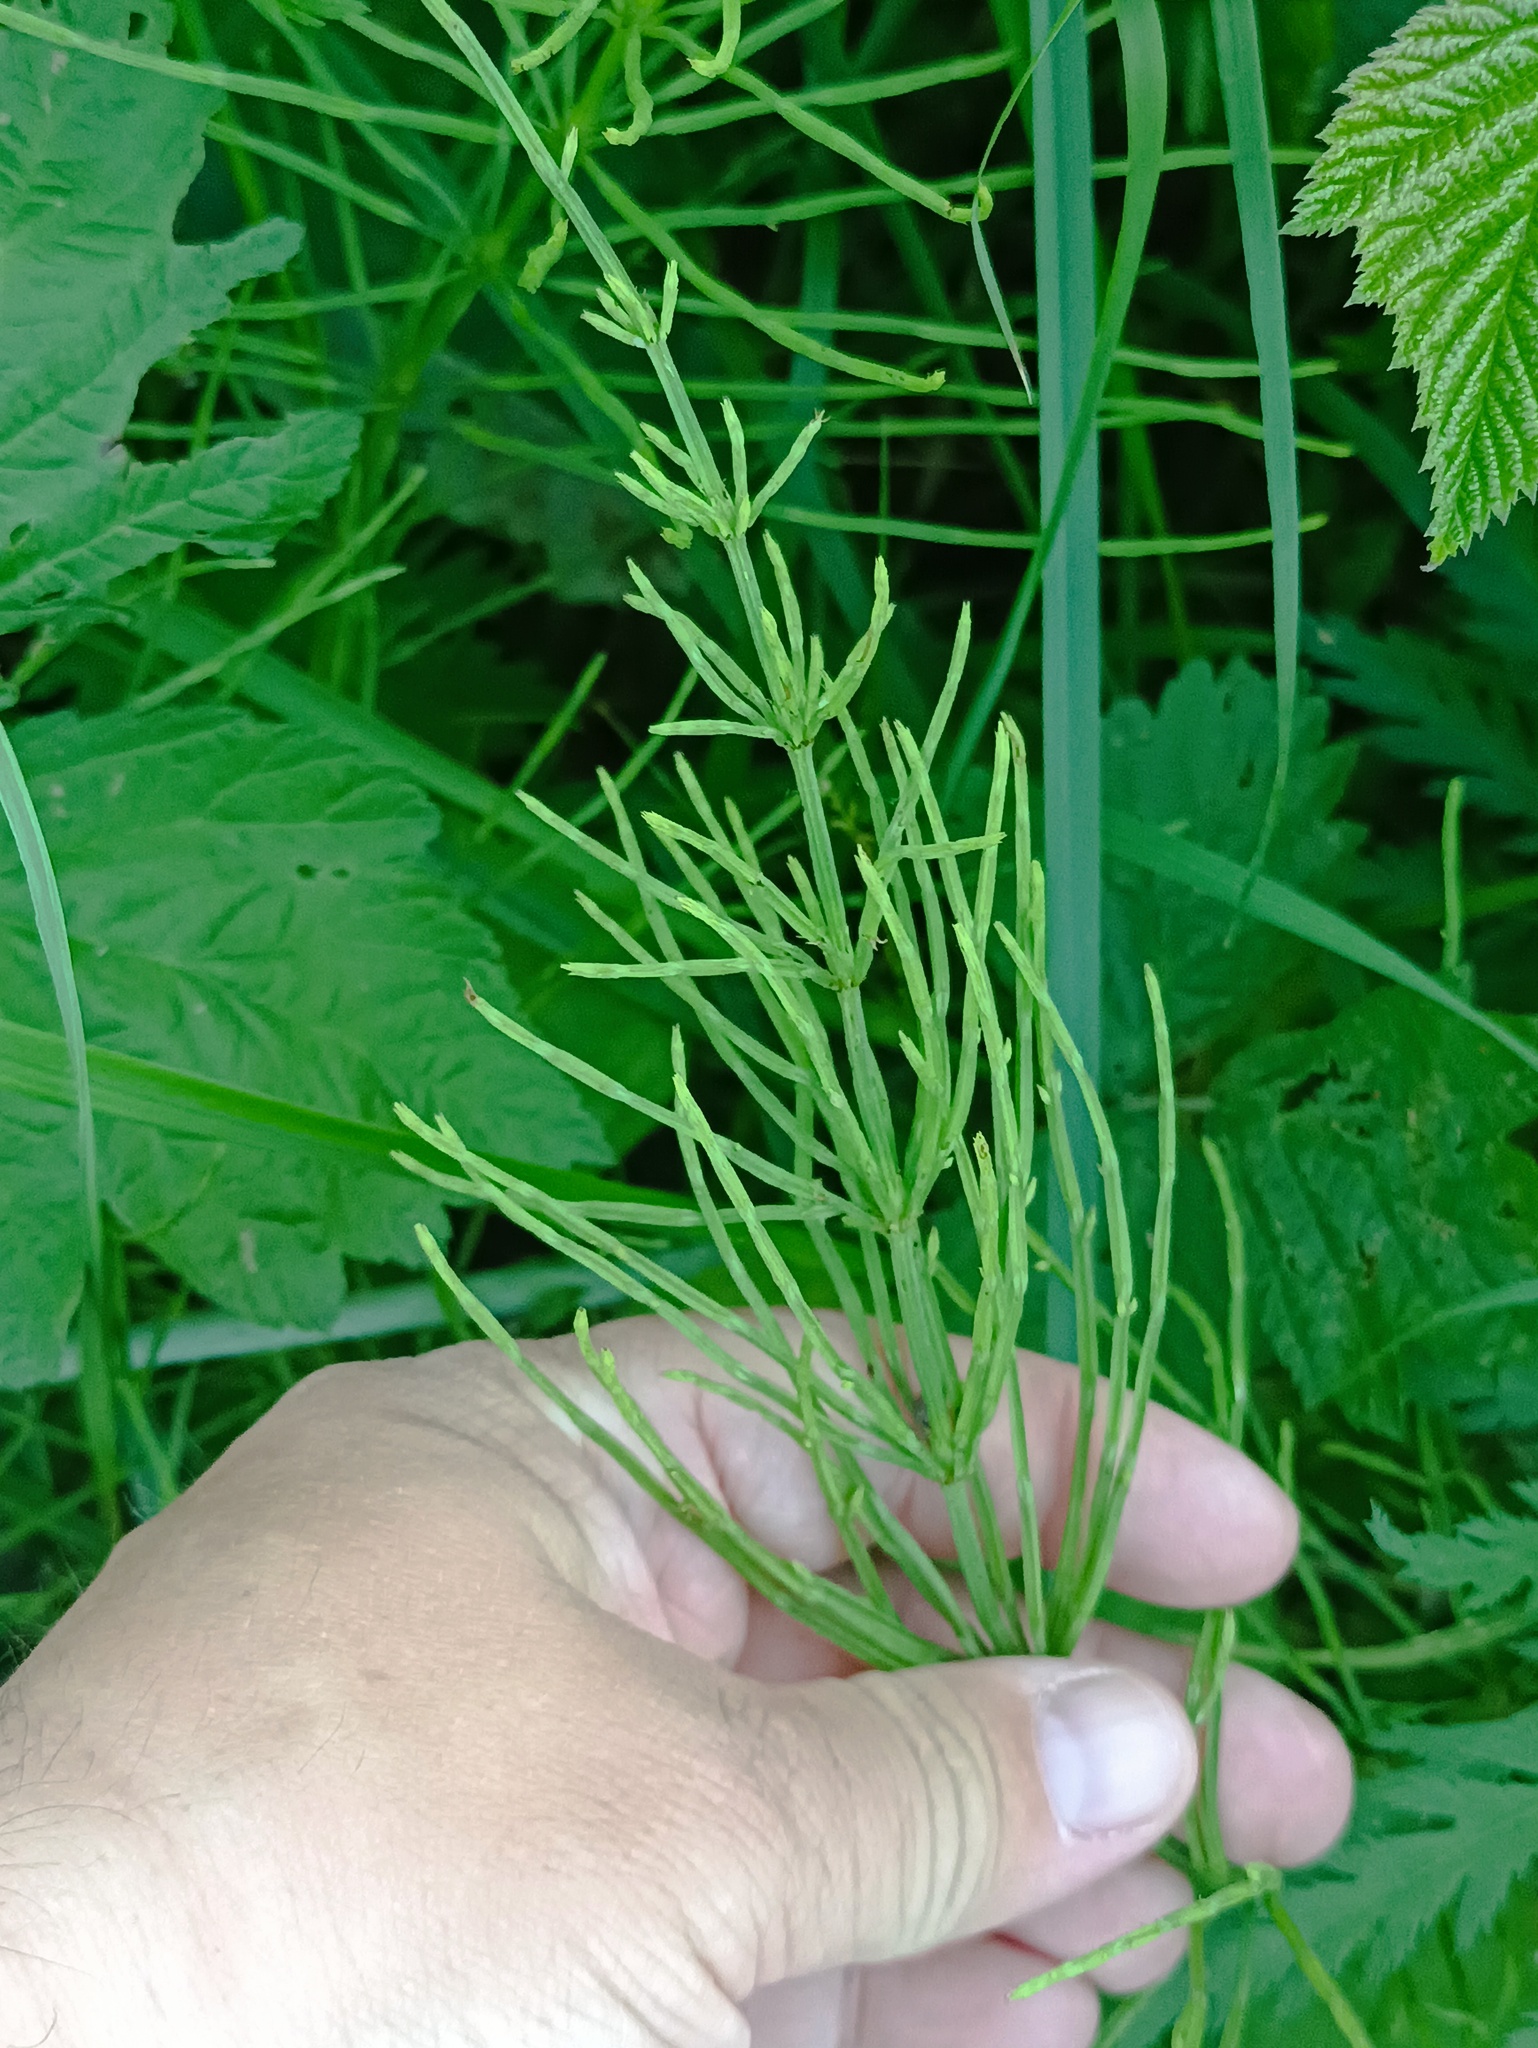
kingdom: Plantae
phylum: Tracheophyta
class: Polypodiopsida
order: Equisetales
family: Equisetaceae
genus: Equisetum
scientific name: Equisetum arvense
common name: Field horsetail
